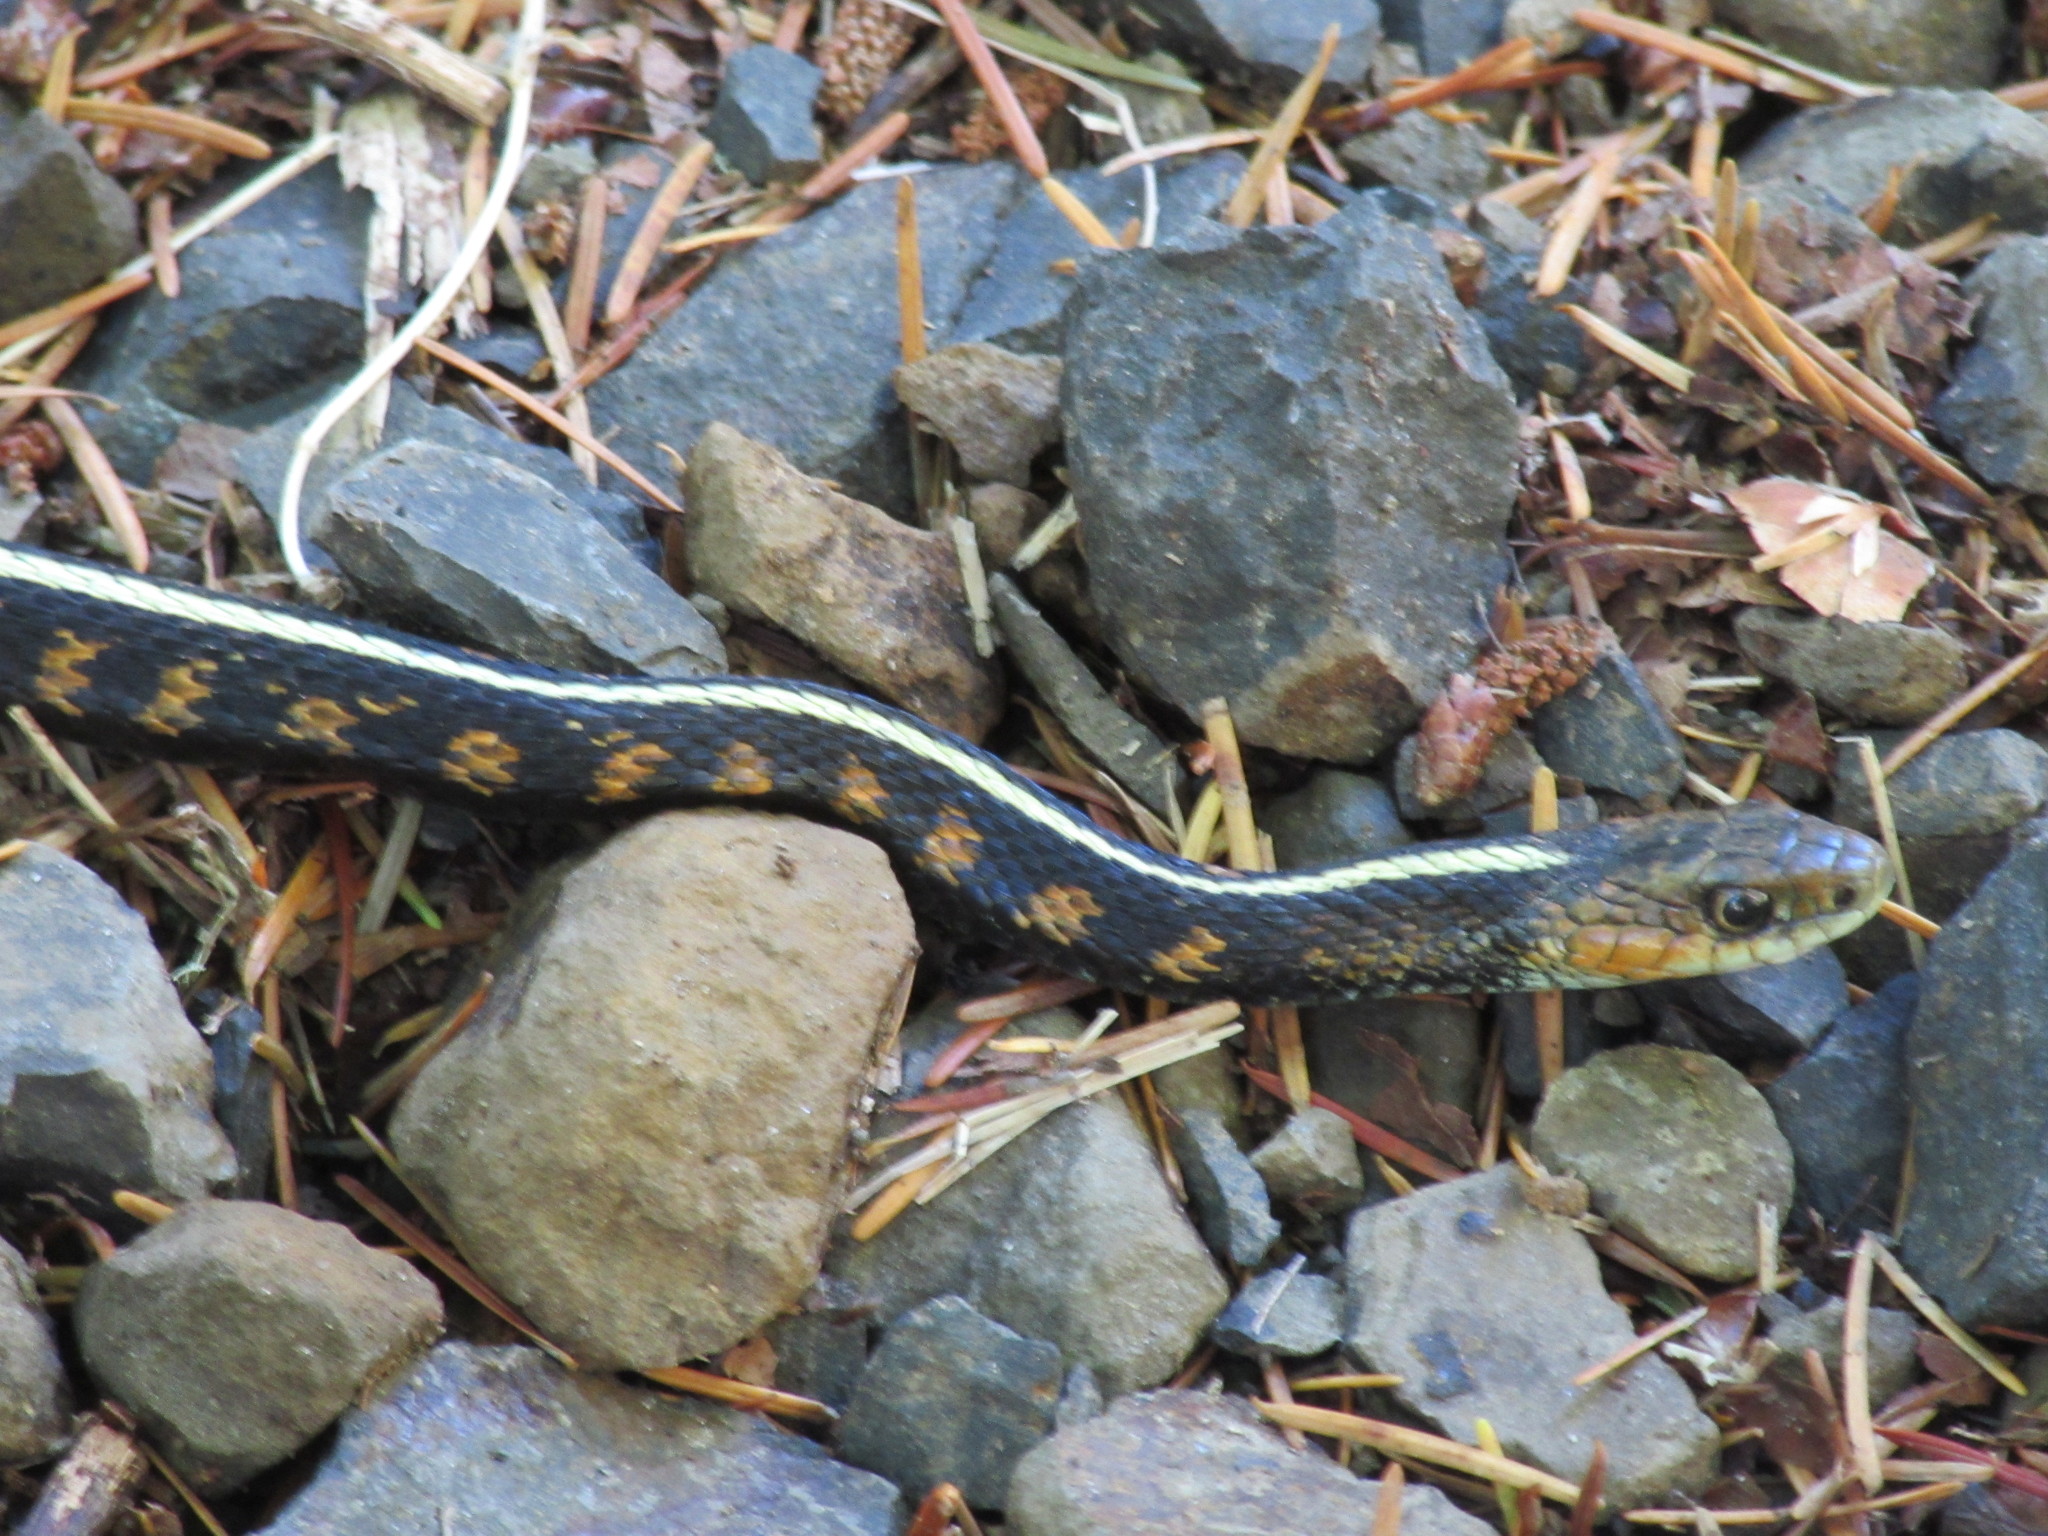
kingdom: Animalia
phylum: Chordata
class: Squamata
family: Colubridae
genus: Thamnophis
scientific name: Thamnophis sirtalis
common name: Common garter snake
